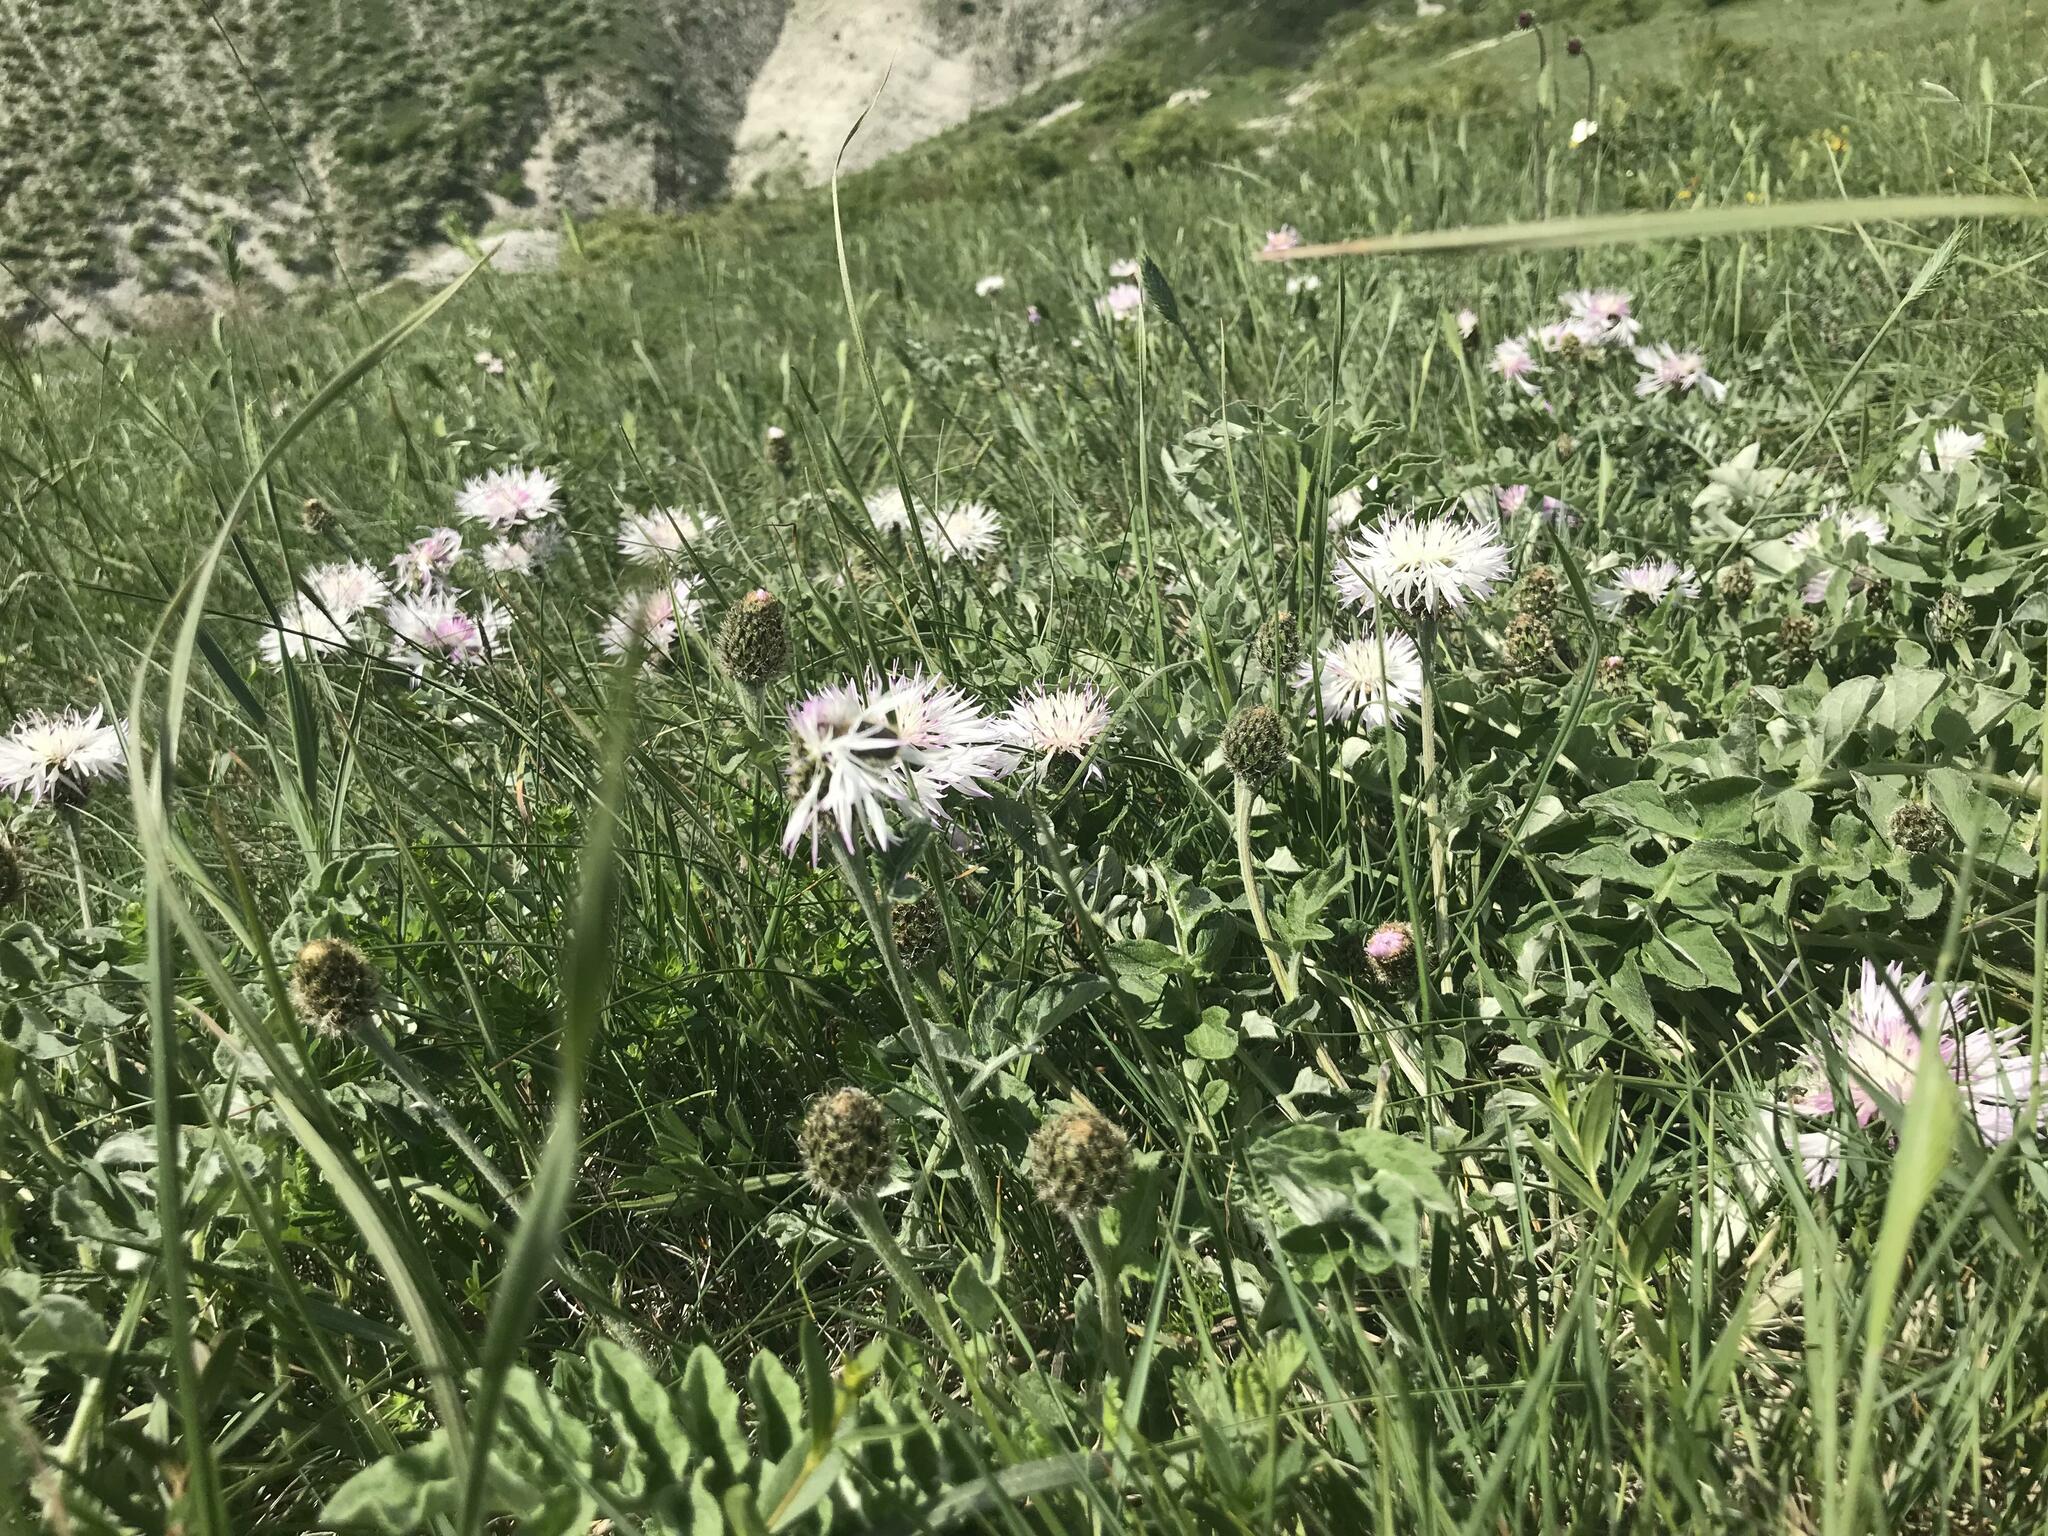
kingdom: Plantae
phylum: Tracheophyta
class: Magnoliopsida
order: Asterales
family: Asteraceae
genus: Psephellus
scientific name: Psephellus declinatus
